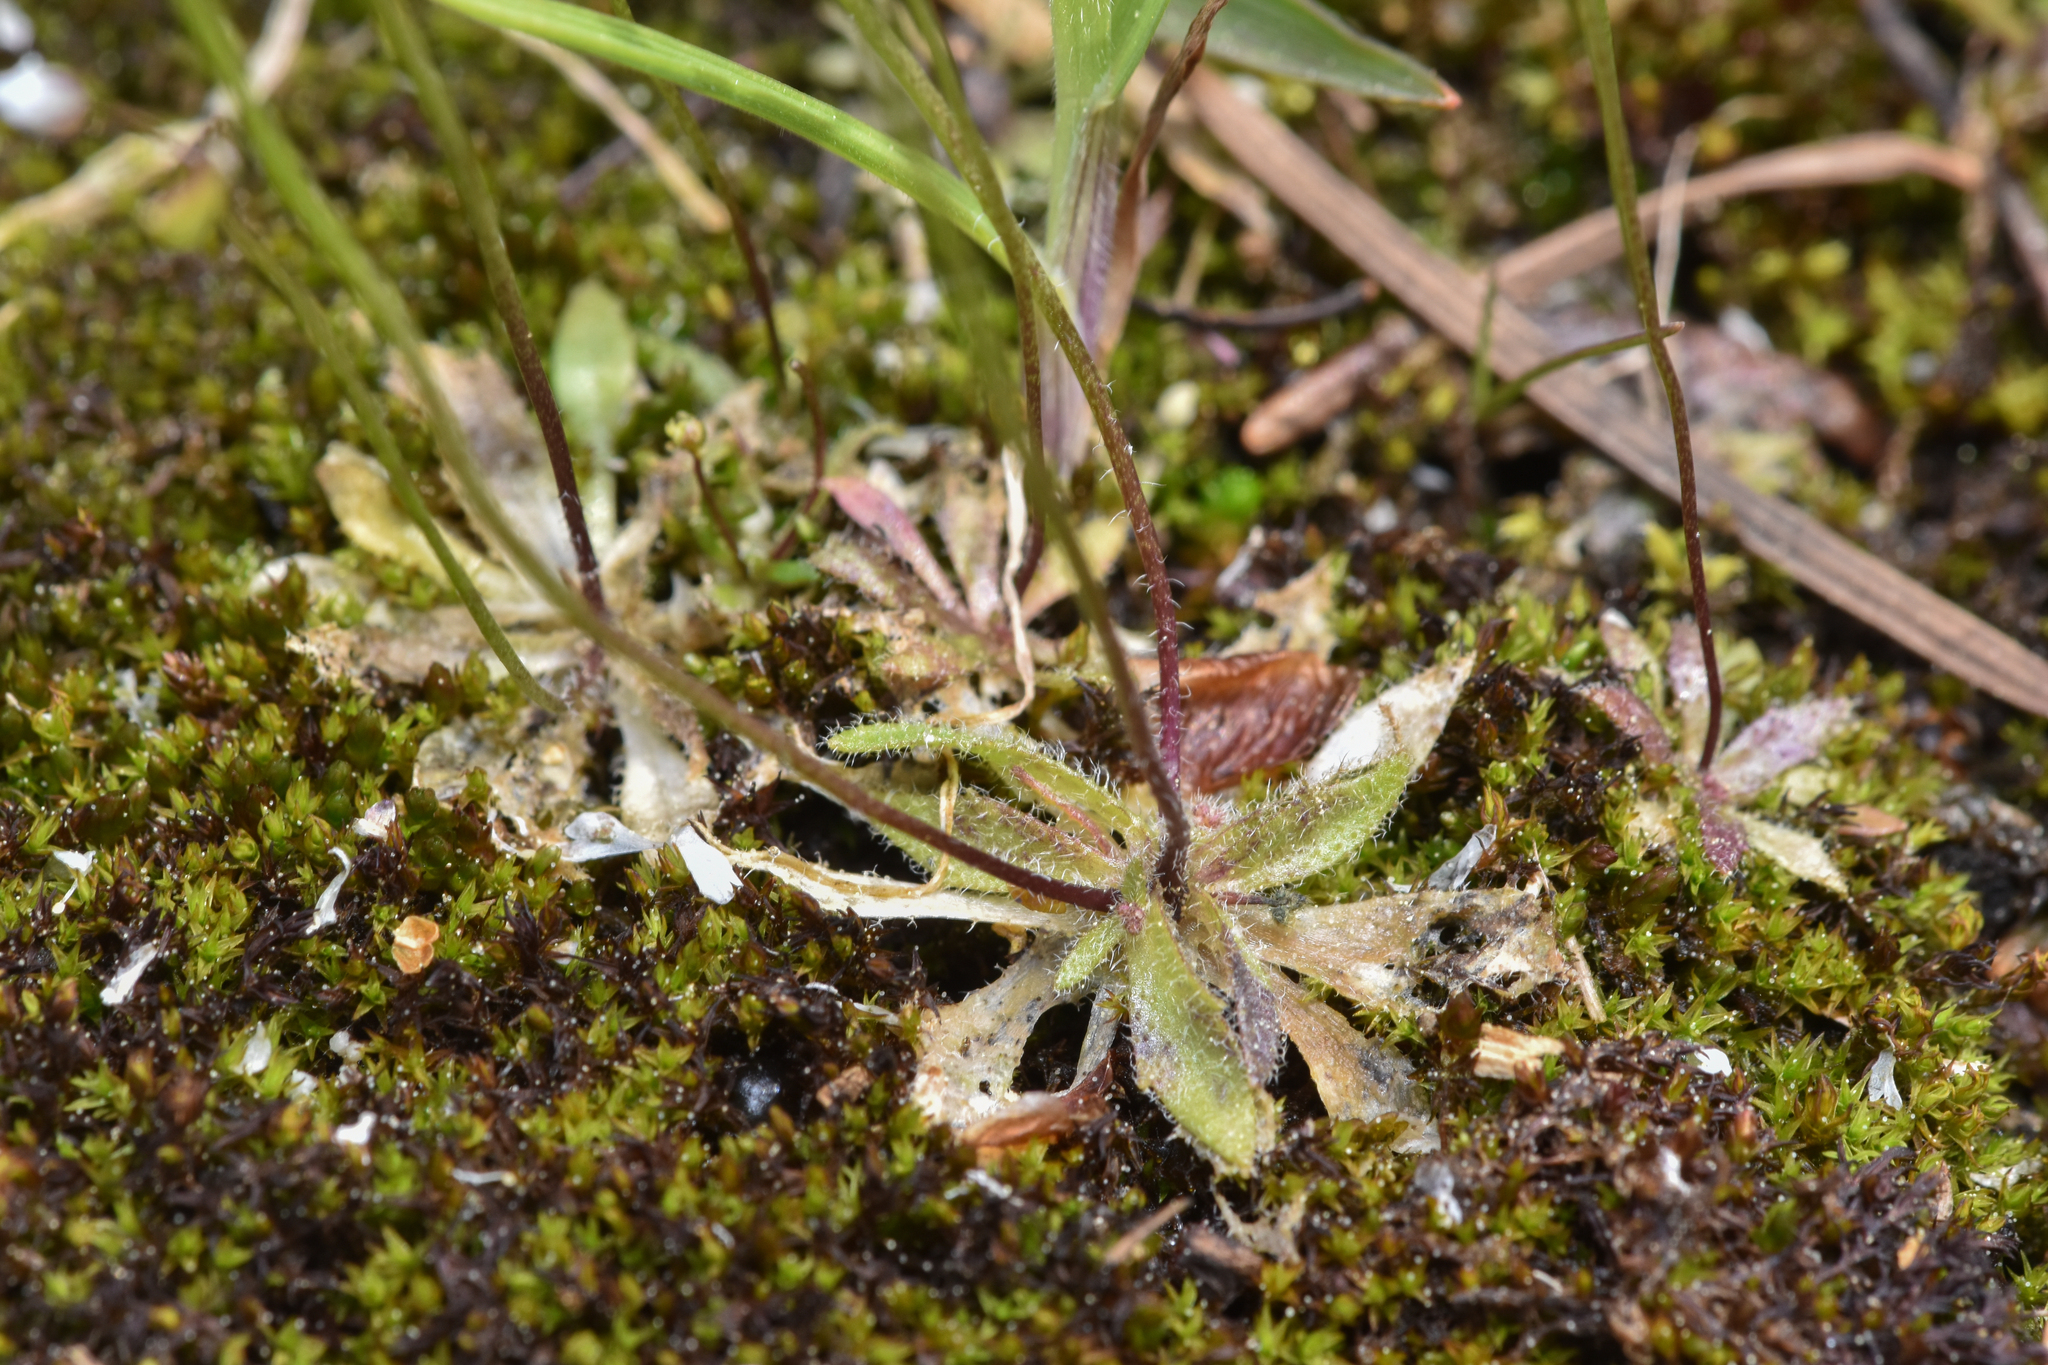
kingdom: Plantae
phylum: Tracheophyta
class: Magnoliopsida
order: Brassicales
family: Brassicaceae
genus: Draba
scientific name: Draba verna
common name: Spring draba
